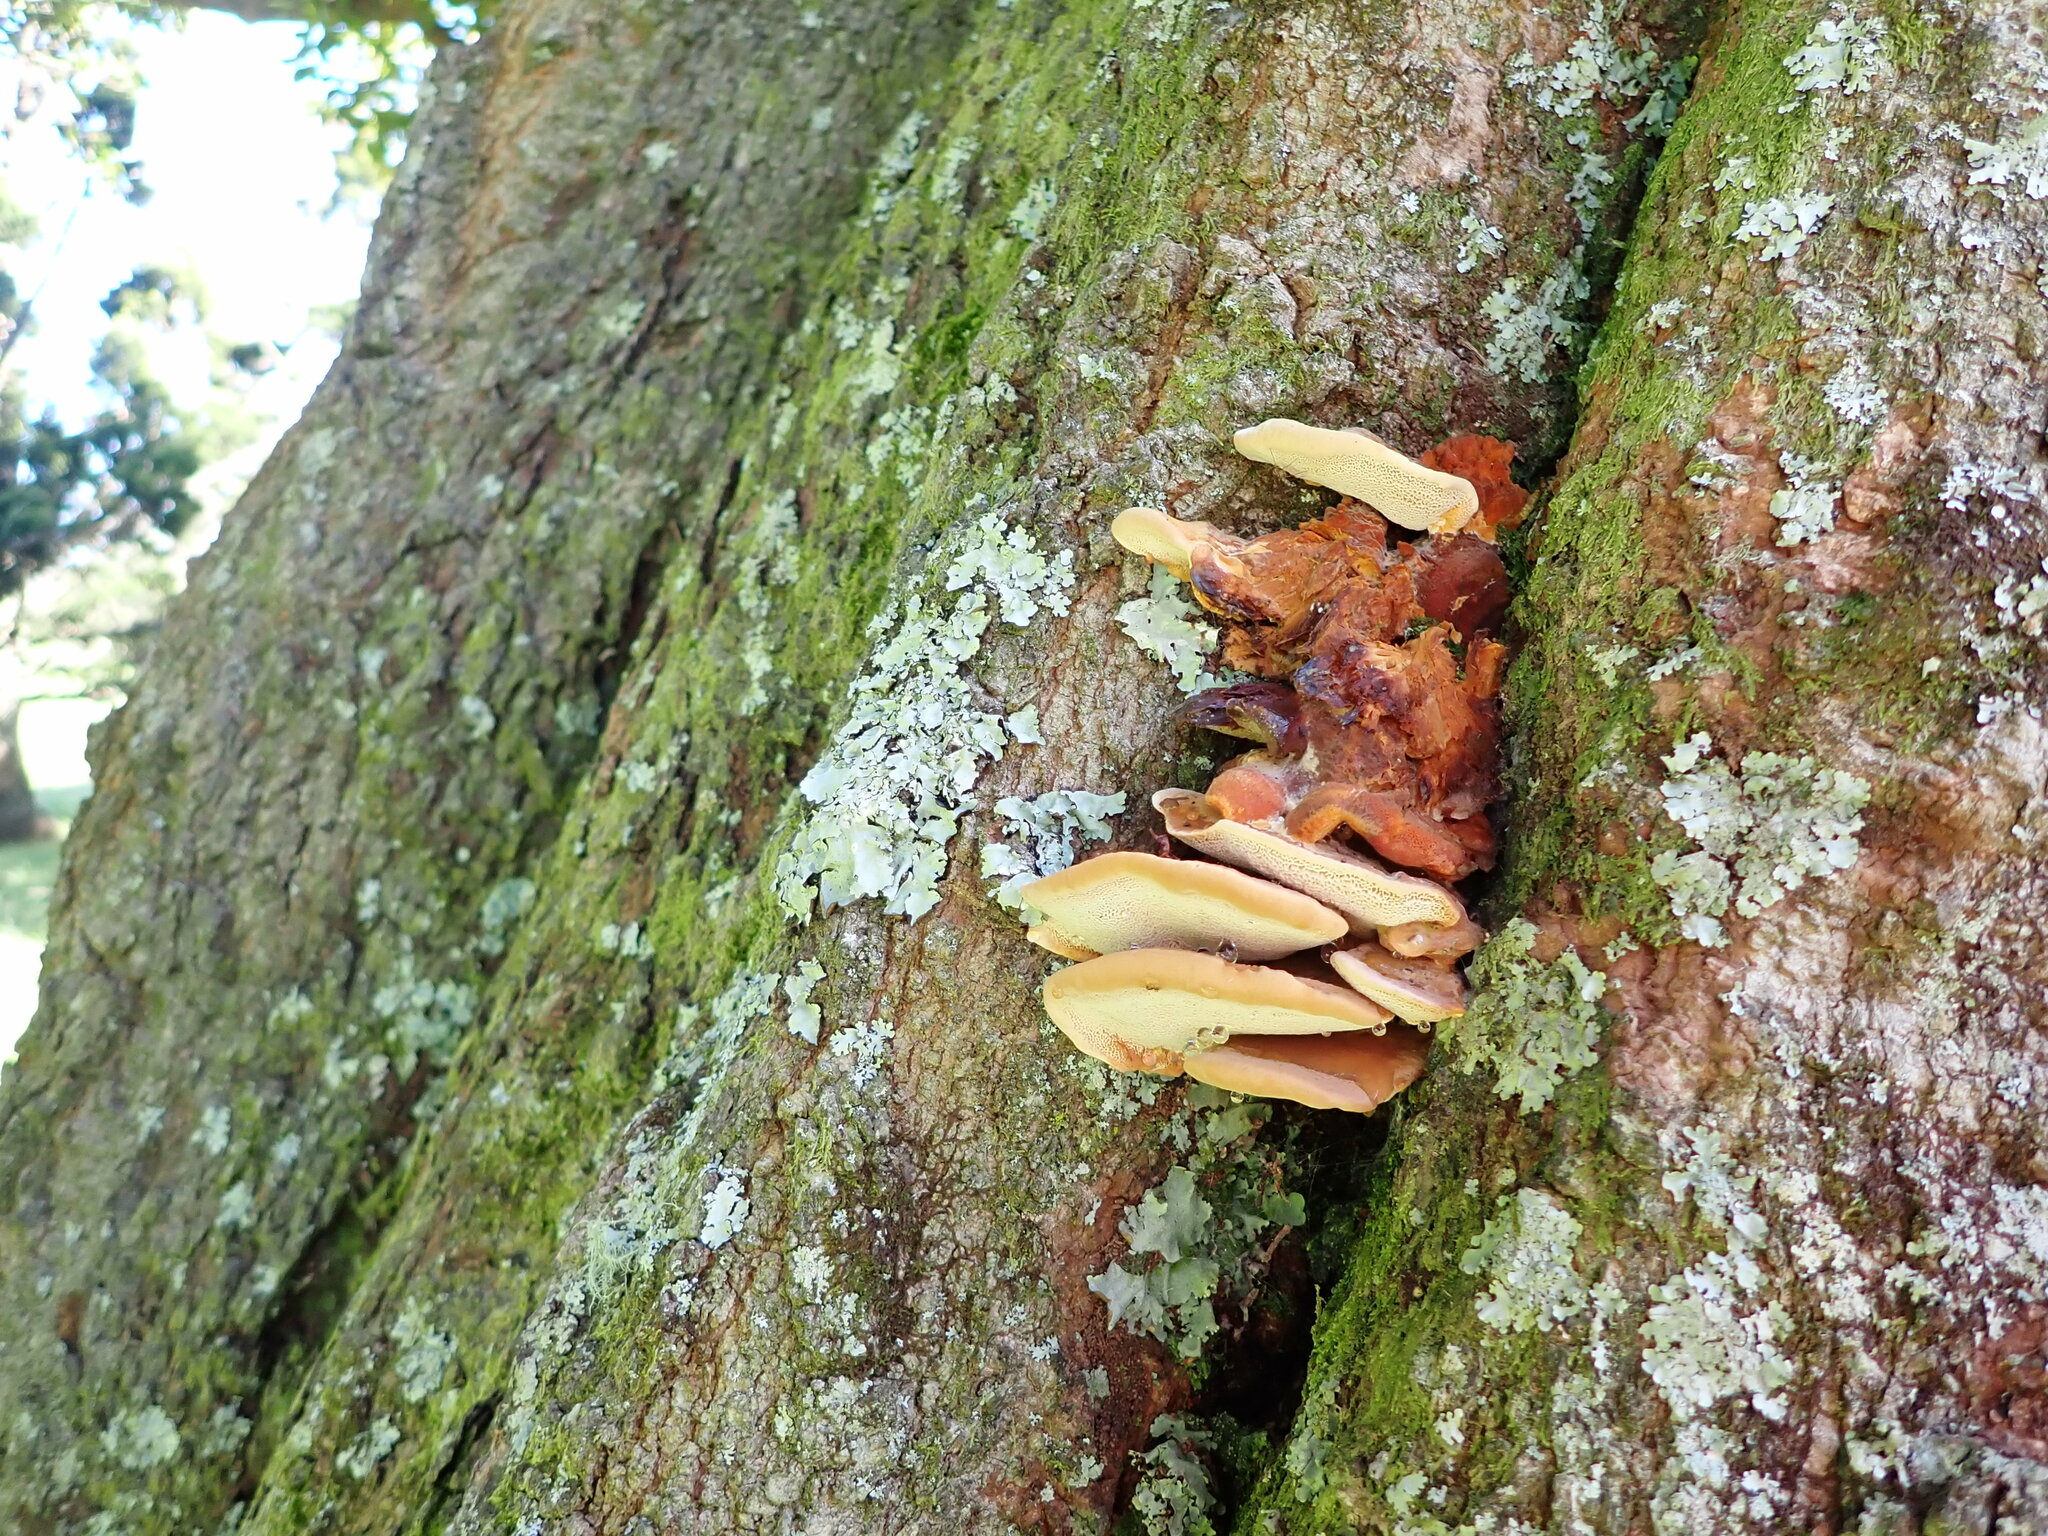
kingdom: Fungi
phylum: Basidiomycota
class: Agaricomycetes
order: Polyporales
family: Meripilaceae
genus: Rigidoporus
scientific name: Rigidoporus laetus
